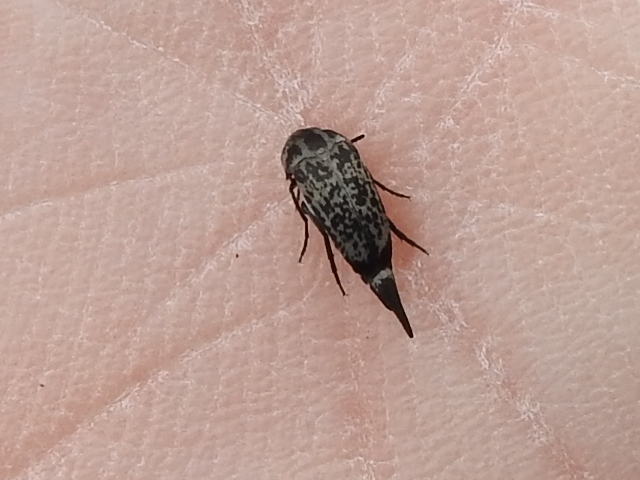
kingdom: Animalia
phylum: Arthropoda
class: Insecta
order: Coleoptera
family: Mordellidae
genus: Mordella
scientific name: Mordella marginata
